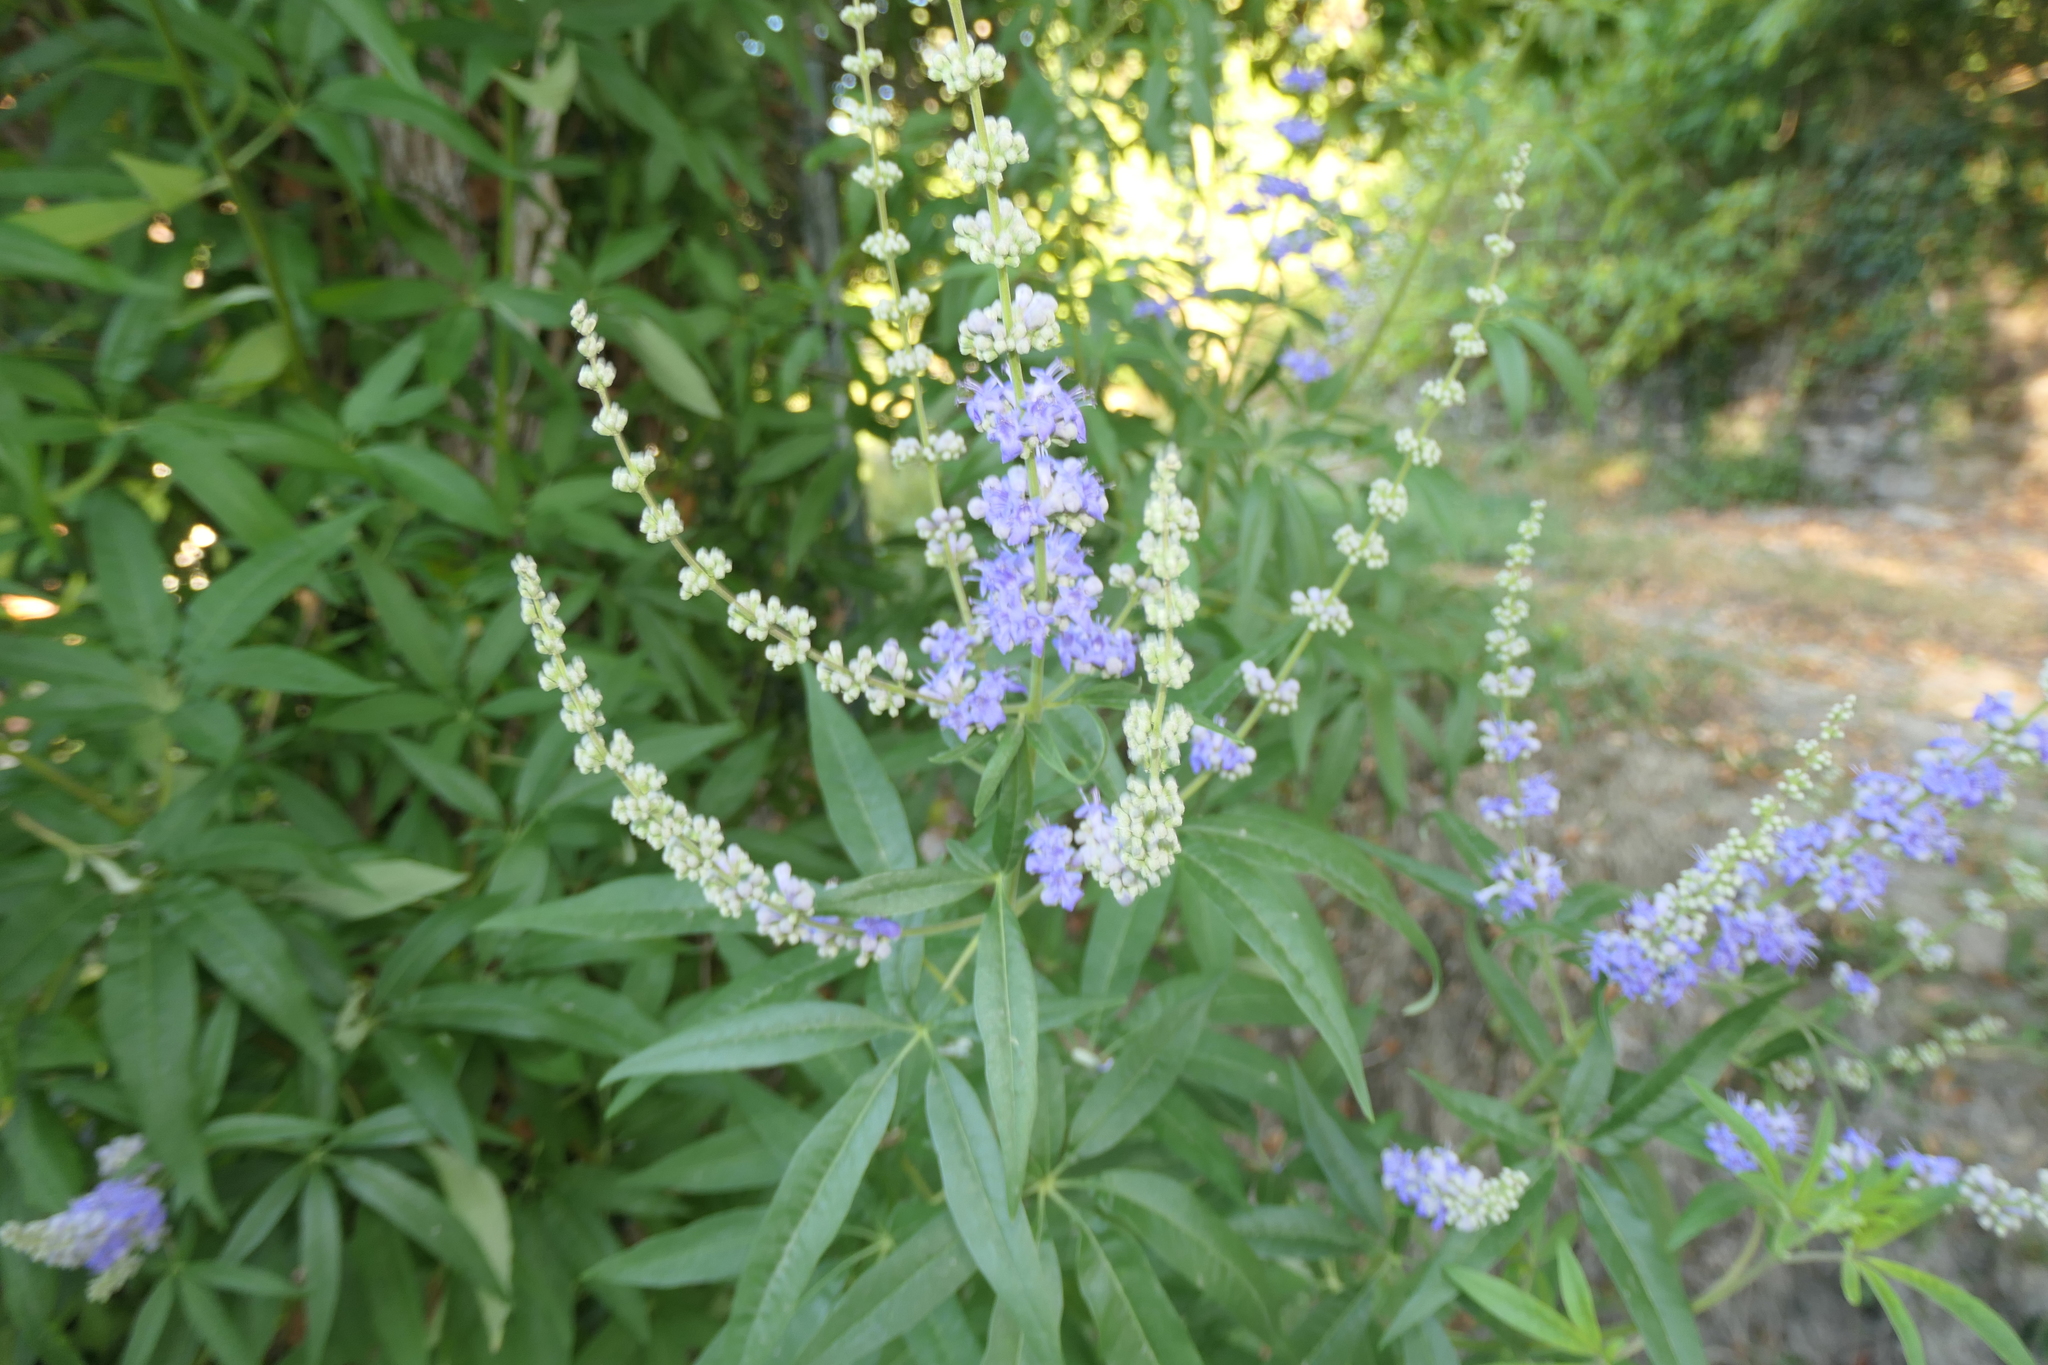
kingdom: Plantae
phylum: Tracheophyta
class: Magnoliopsida
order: Lamiales
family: Lamiaceae
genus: Vitex
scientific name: Vitex agnus-castus
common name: Chasteberry
